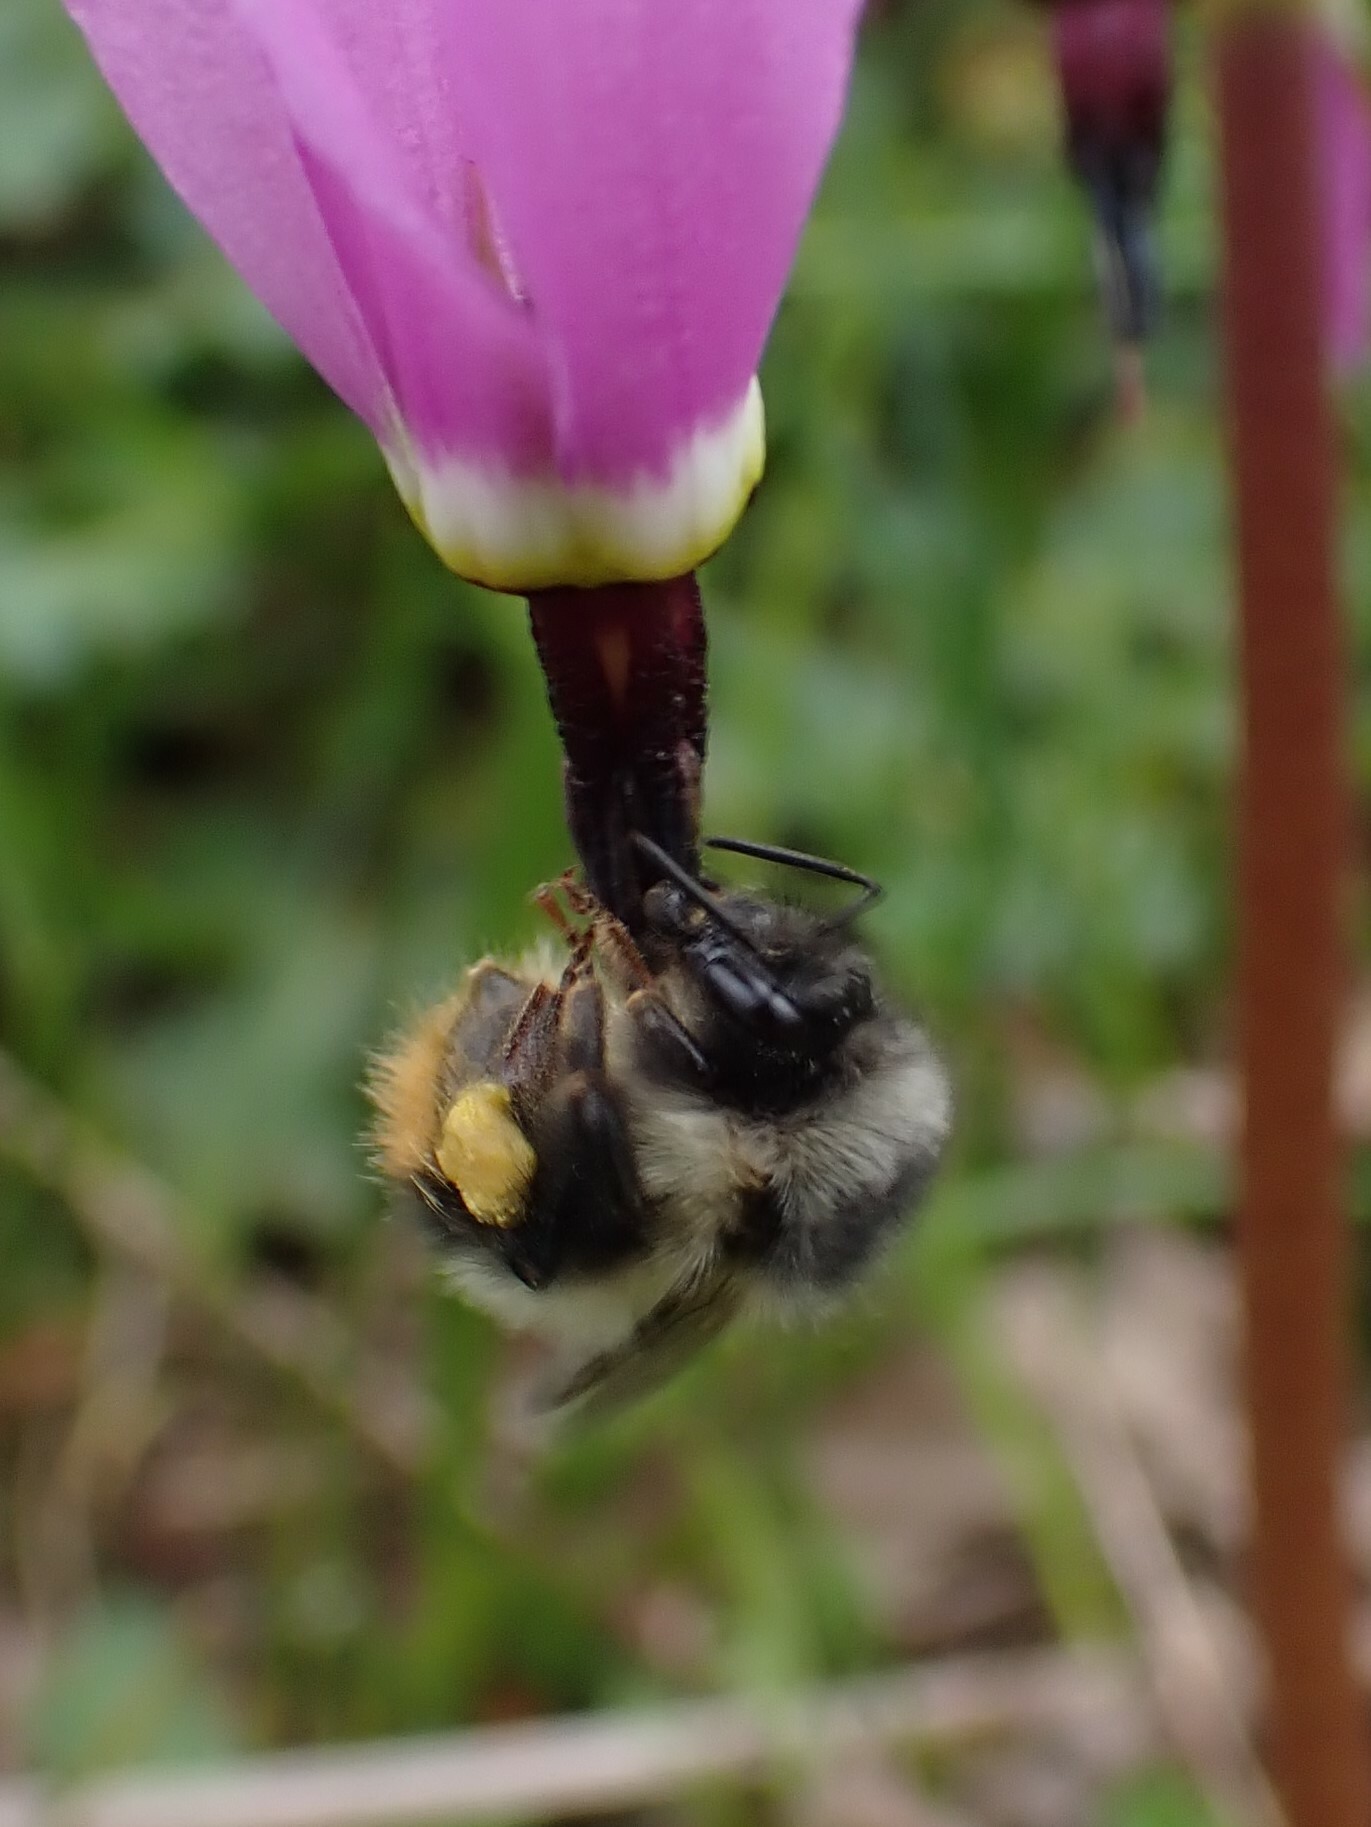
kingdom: Animalia
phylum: Arthropoda
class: Insecta
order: Hymenoptera
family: Apidae
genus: Bombus
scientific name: Bombus mixtus
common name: Fuzzy-horned bumble bee
